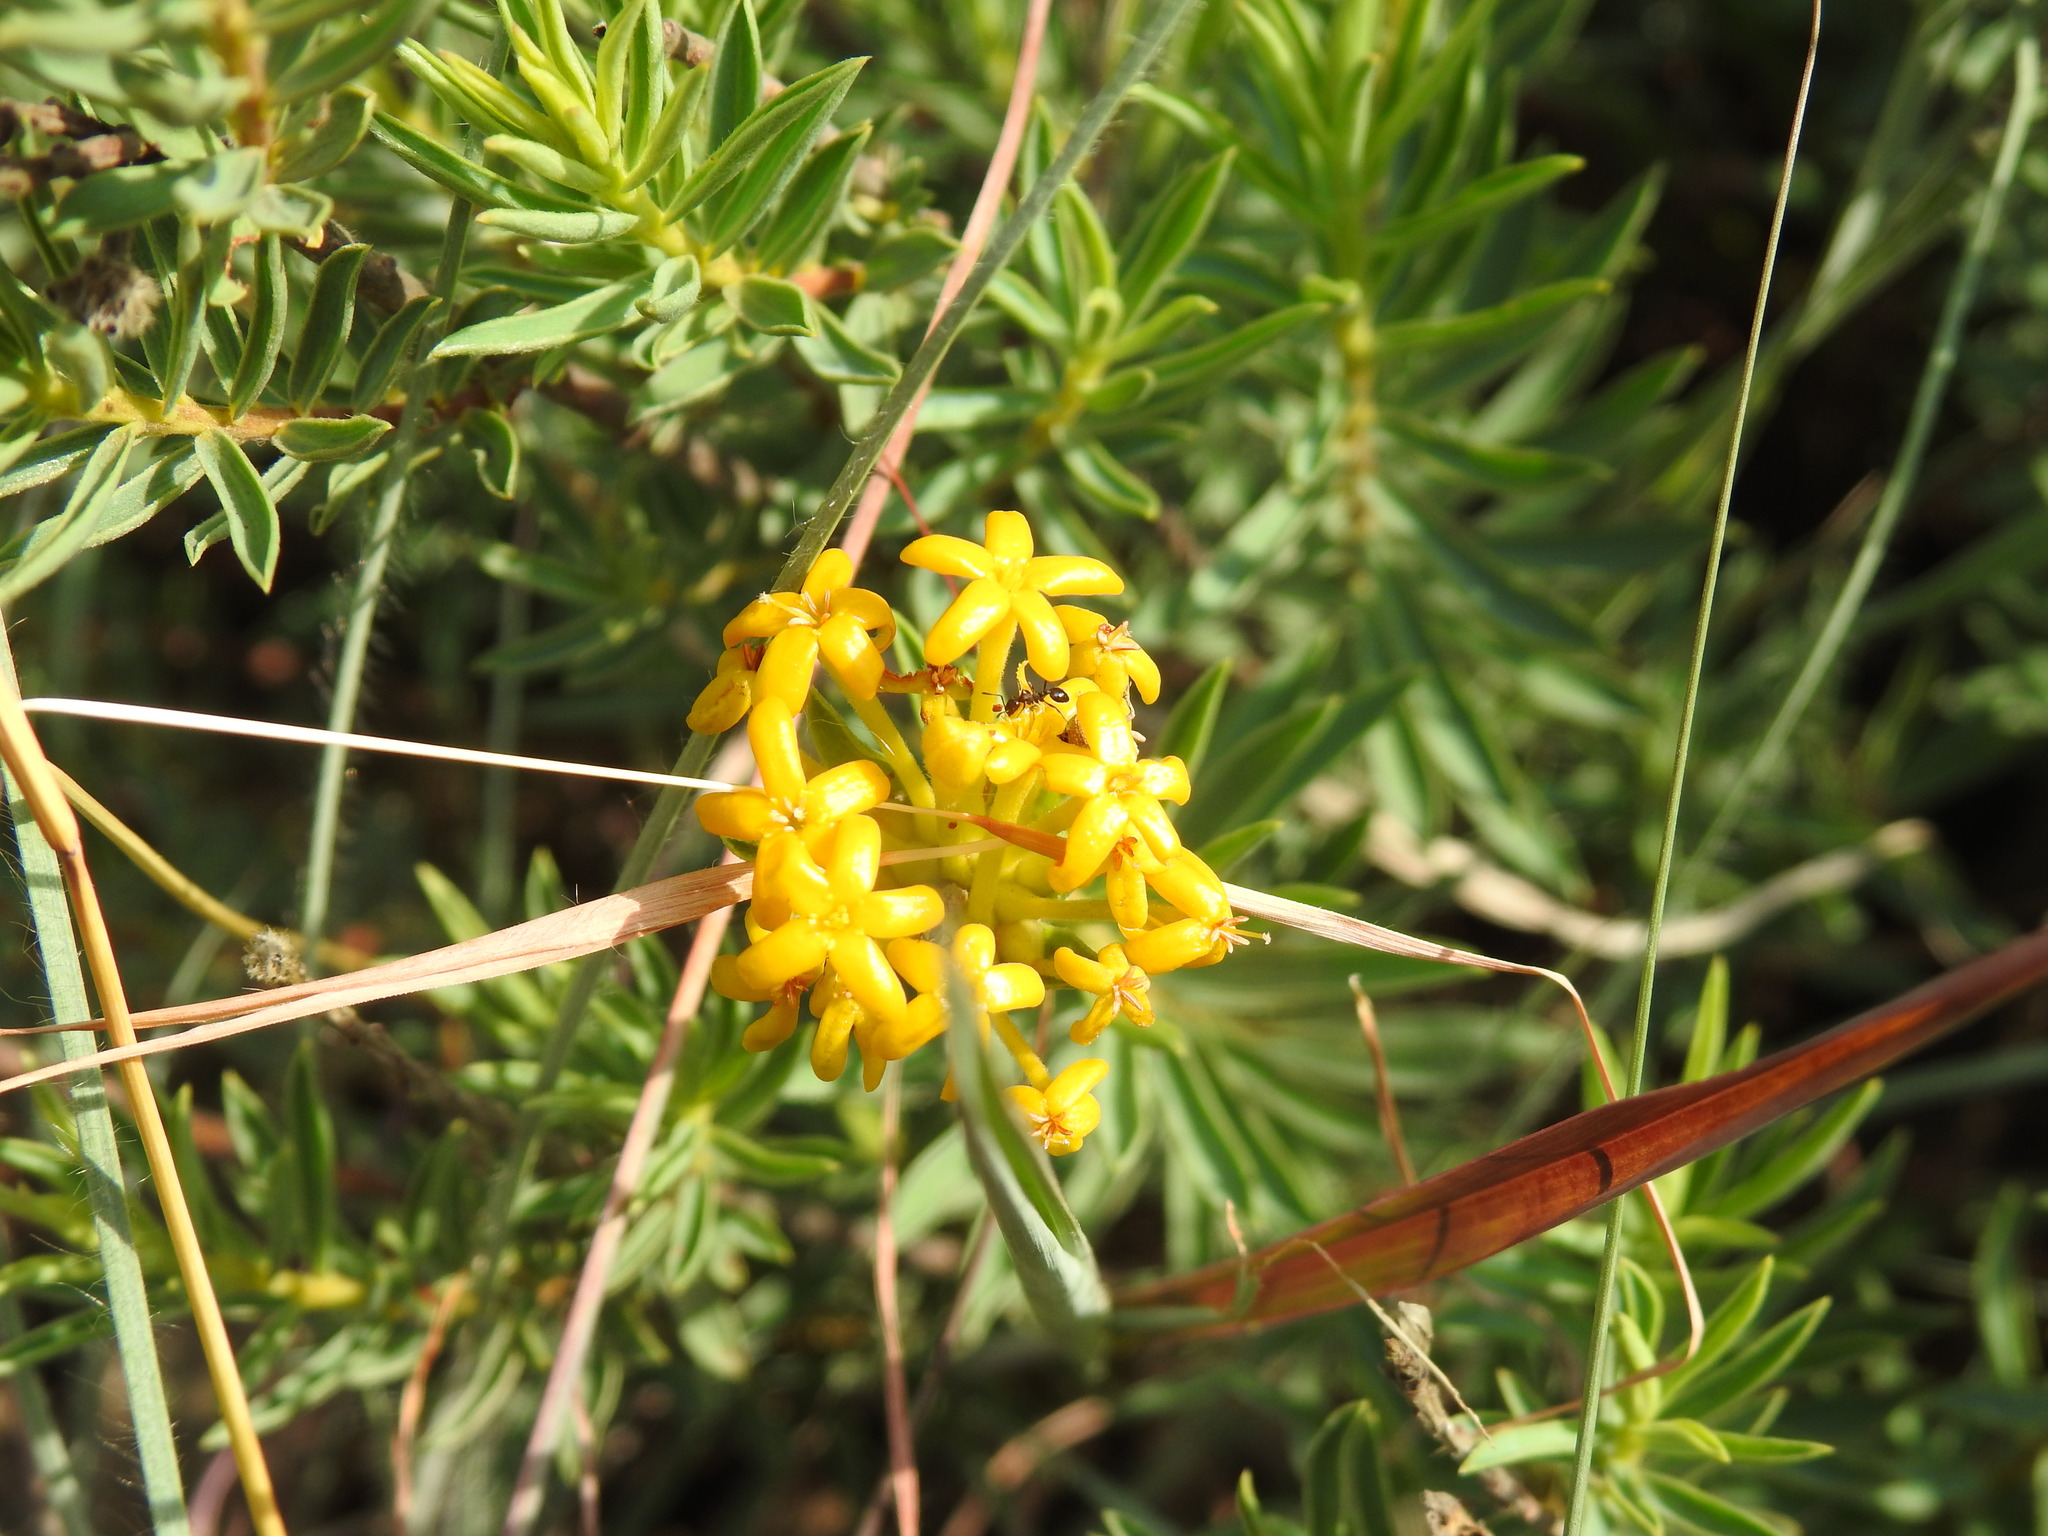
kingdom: Plantae
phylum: Tracheophyta
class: Magnoliopsida
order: Malvales
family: Thymelaeaceae
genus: Gnidia
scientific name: Gnidia capitata
